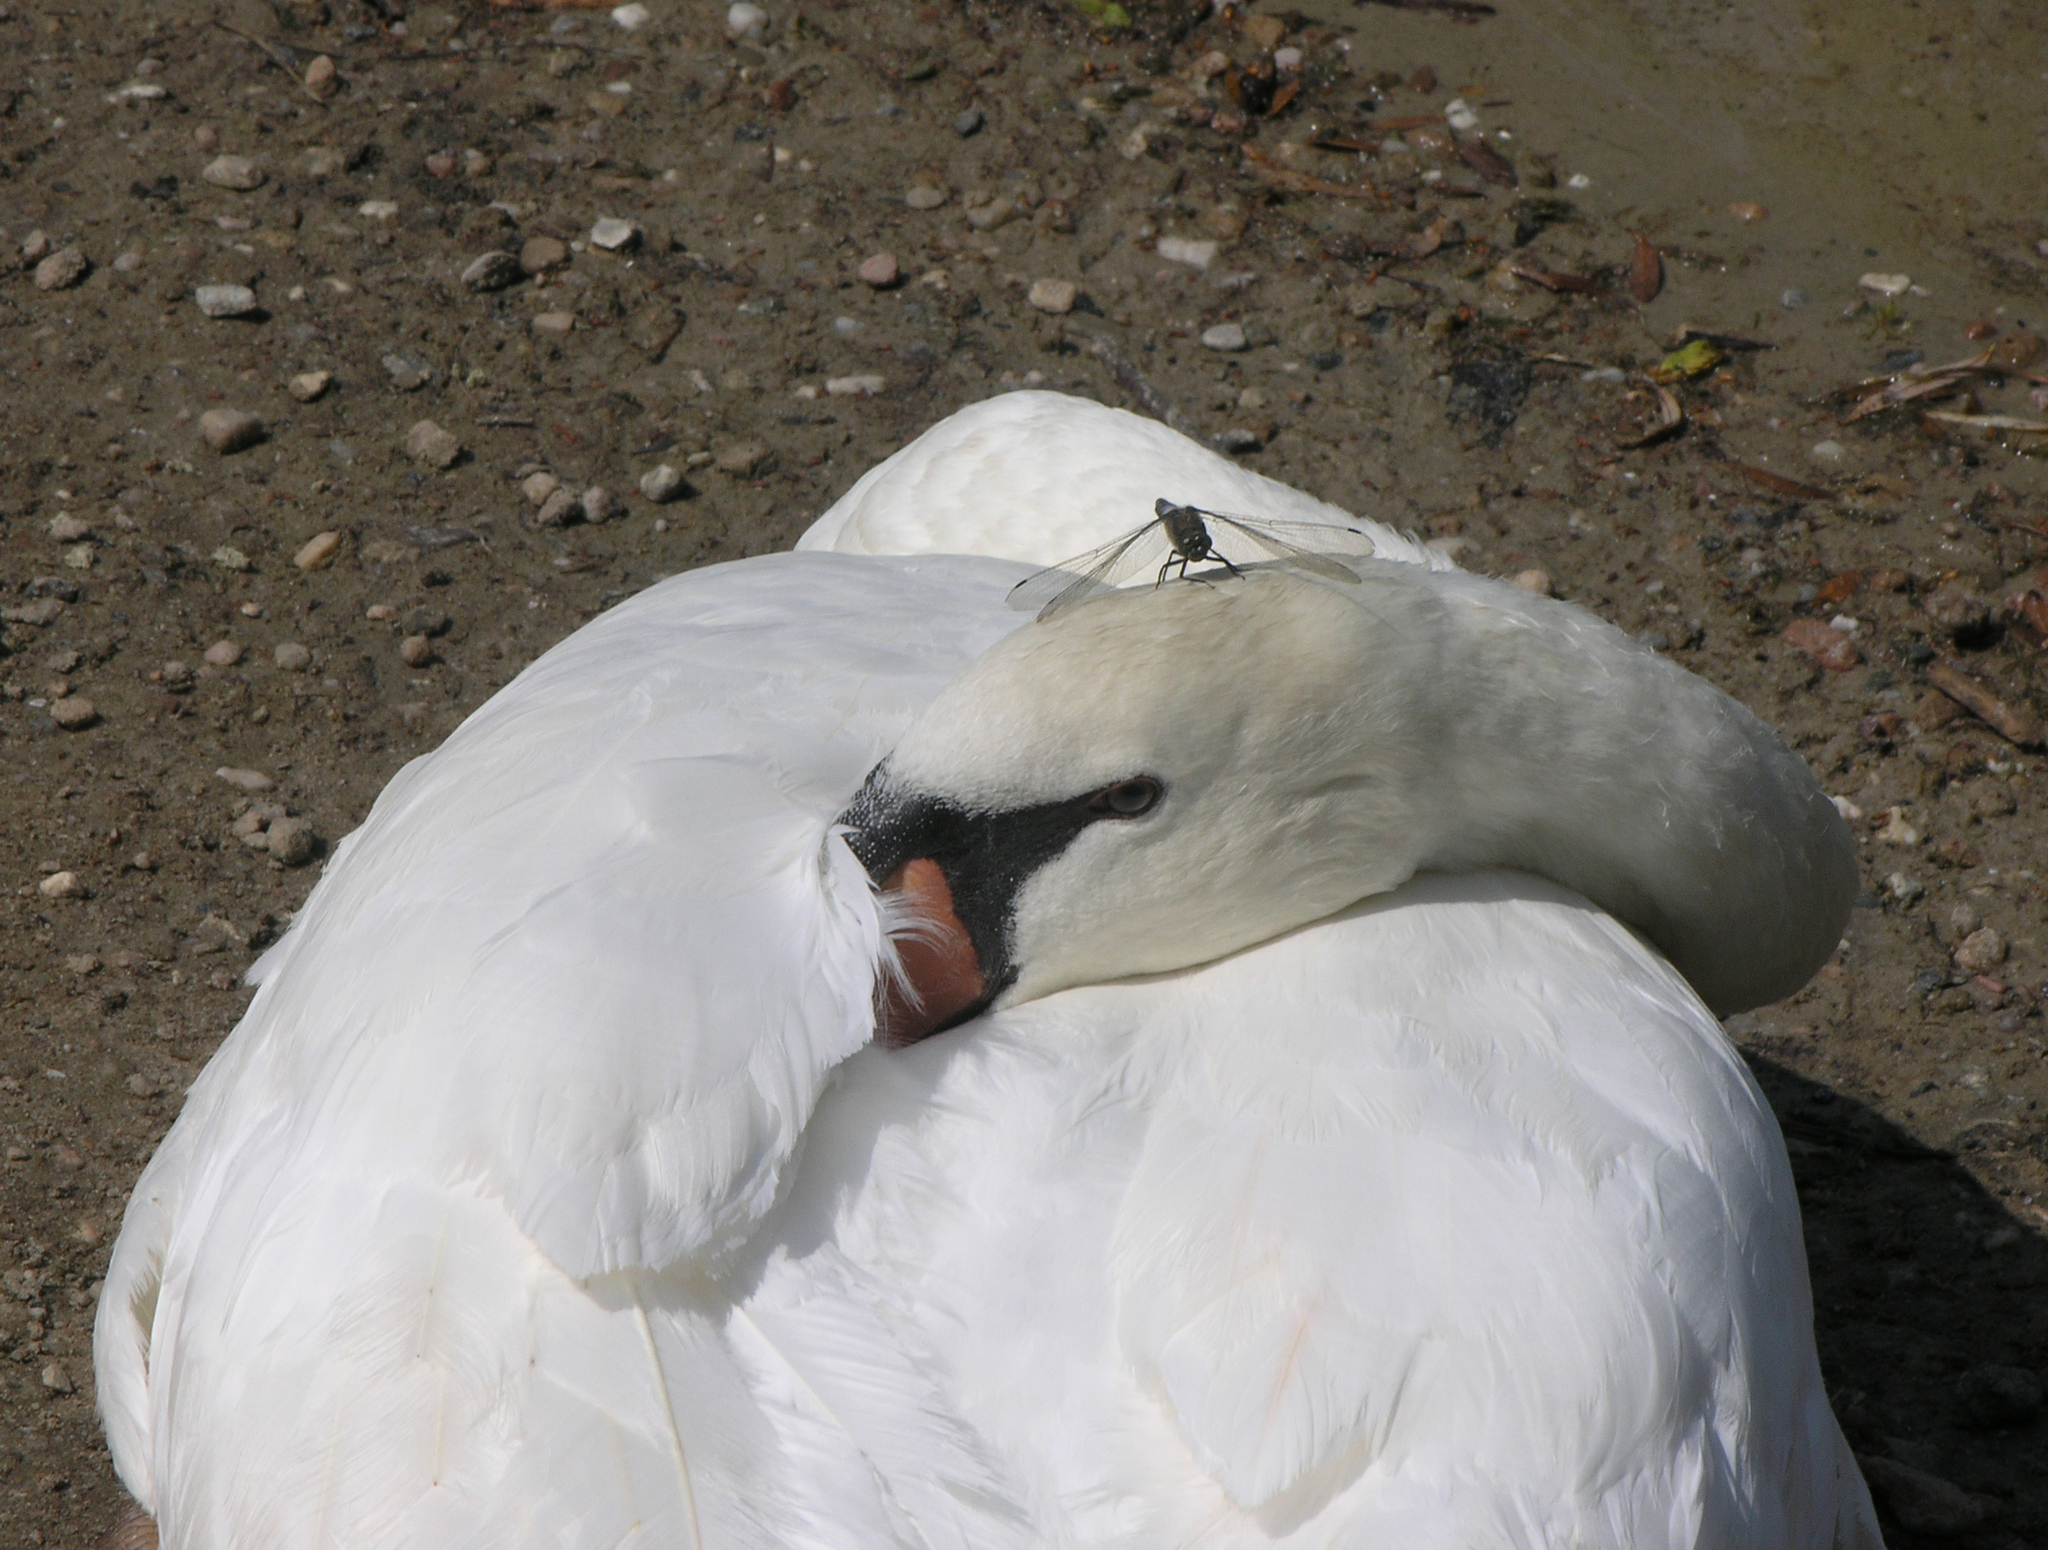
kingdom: Animalia
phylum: Arthropoda
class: Insecta
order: Odonata
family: Libellulidae
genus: Orthetrum
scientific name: Orthetrum cancellatum
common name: Black-tailed skimmer
